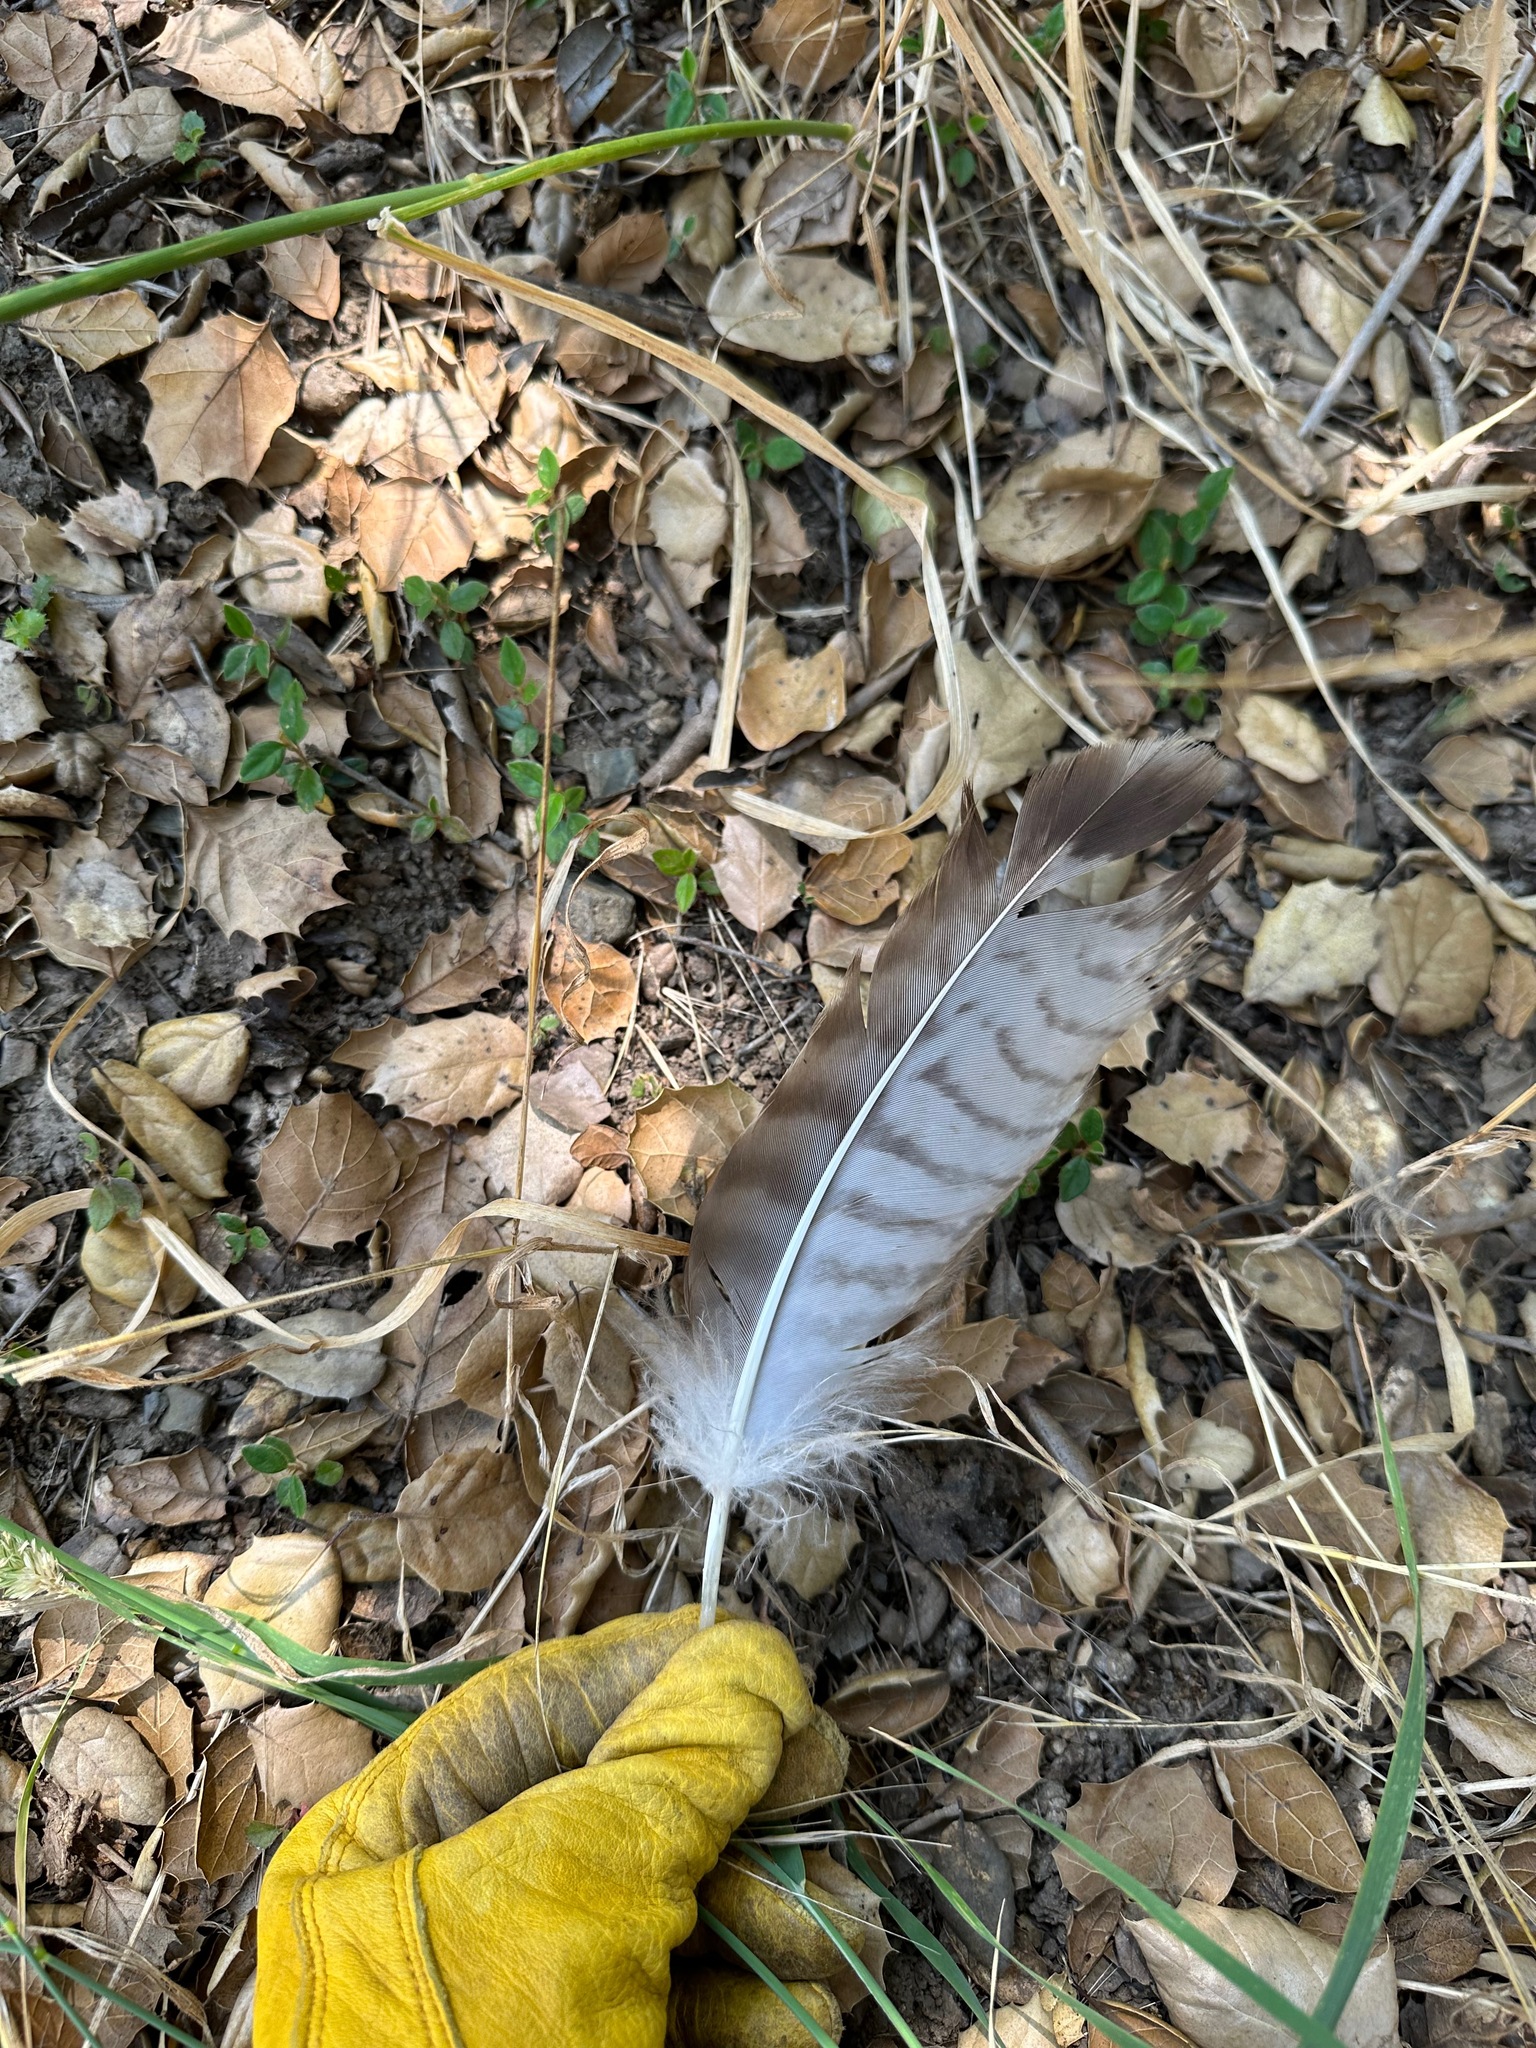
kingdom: Animalia
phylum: Chordata
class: Aves
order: Accipitriformes
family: Accipitridae
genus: Buteo
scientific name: Buteo jamaicensis
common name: Red-tailed hawk
